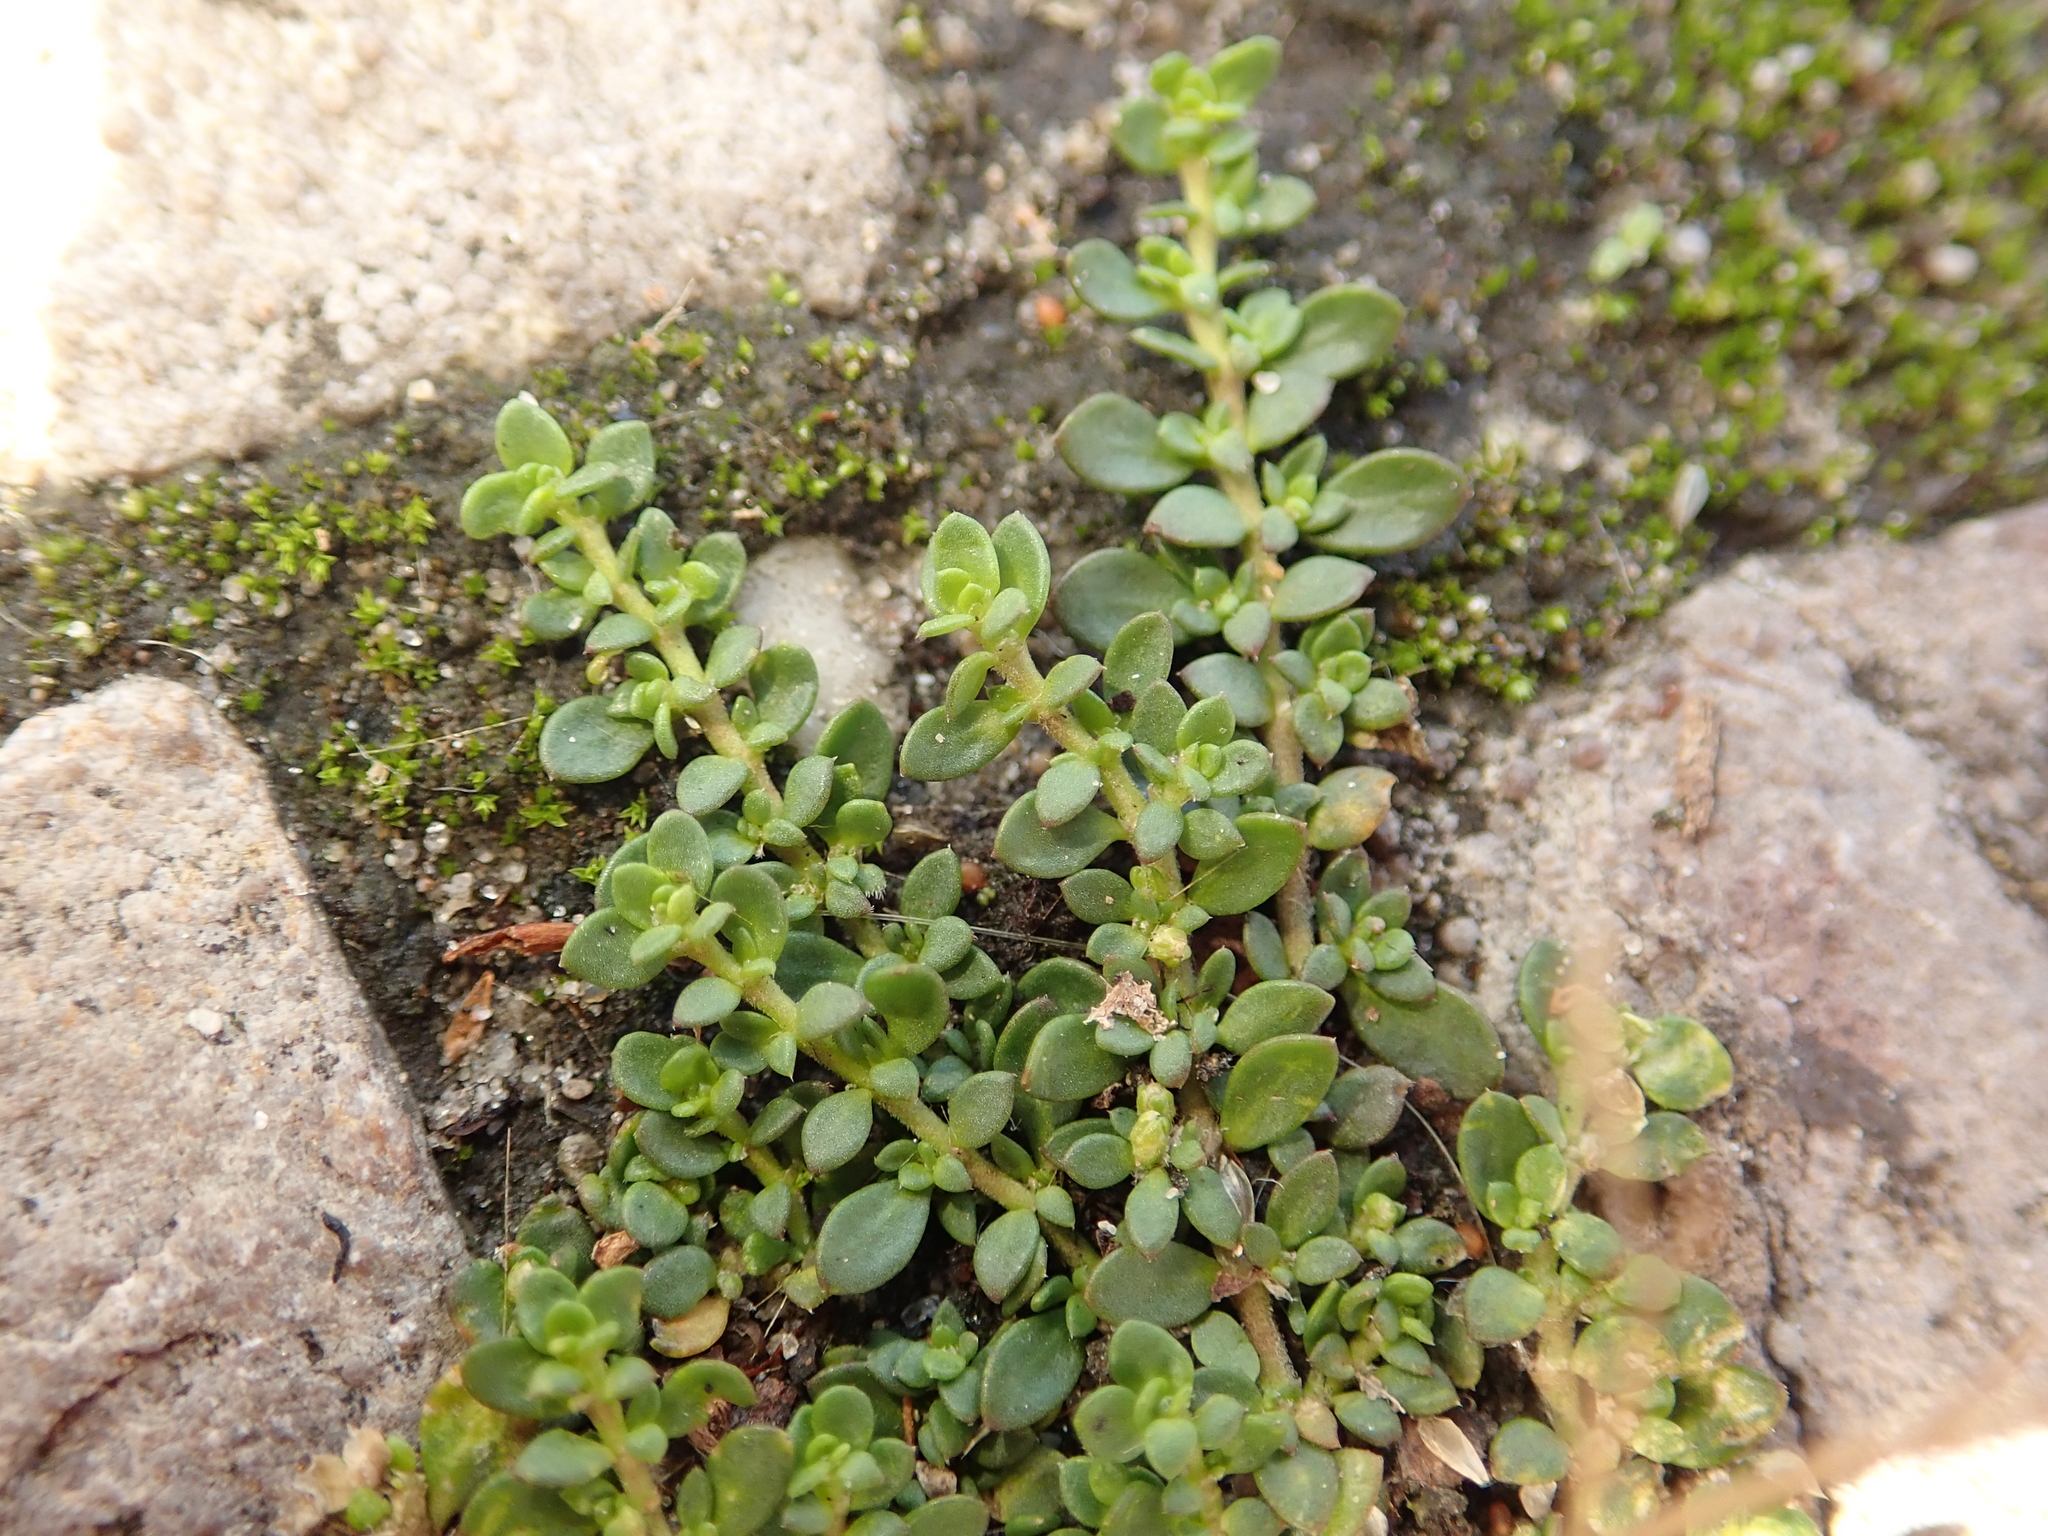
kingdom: Plantae
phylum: Tracheophyta
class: Magnoliopsida
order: Caryophyllales
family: Caryophyllaceae
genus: Herniaria
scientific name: Herniaria glabra
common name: Smooth rupturewort
